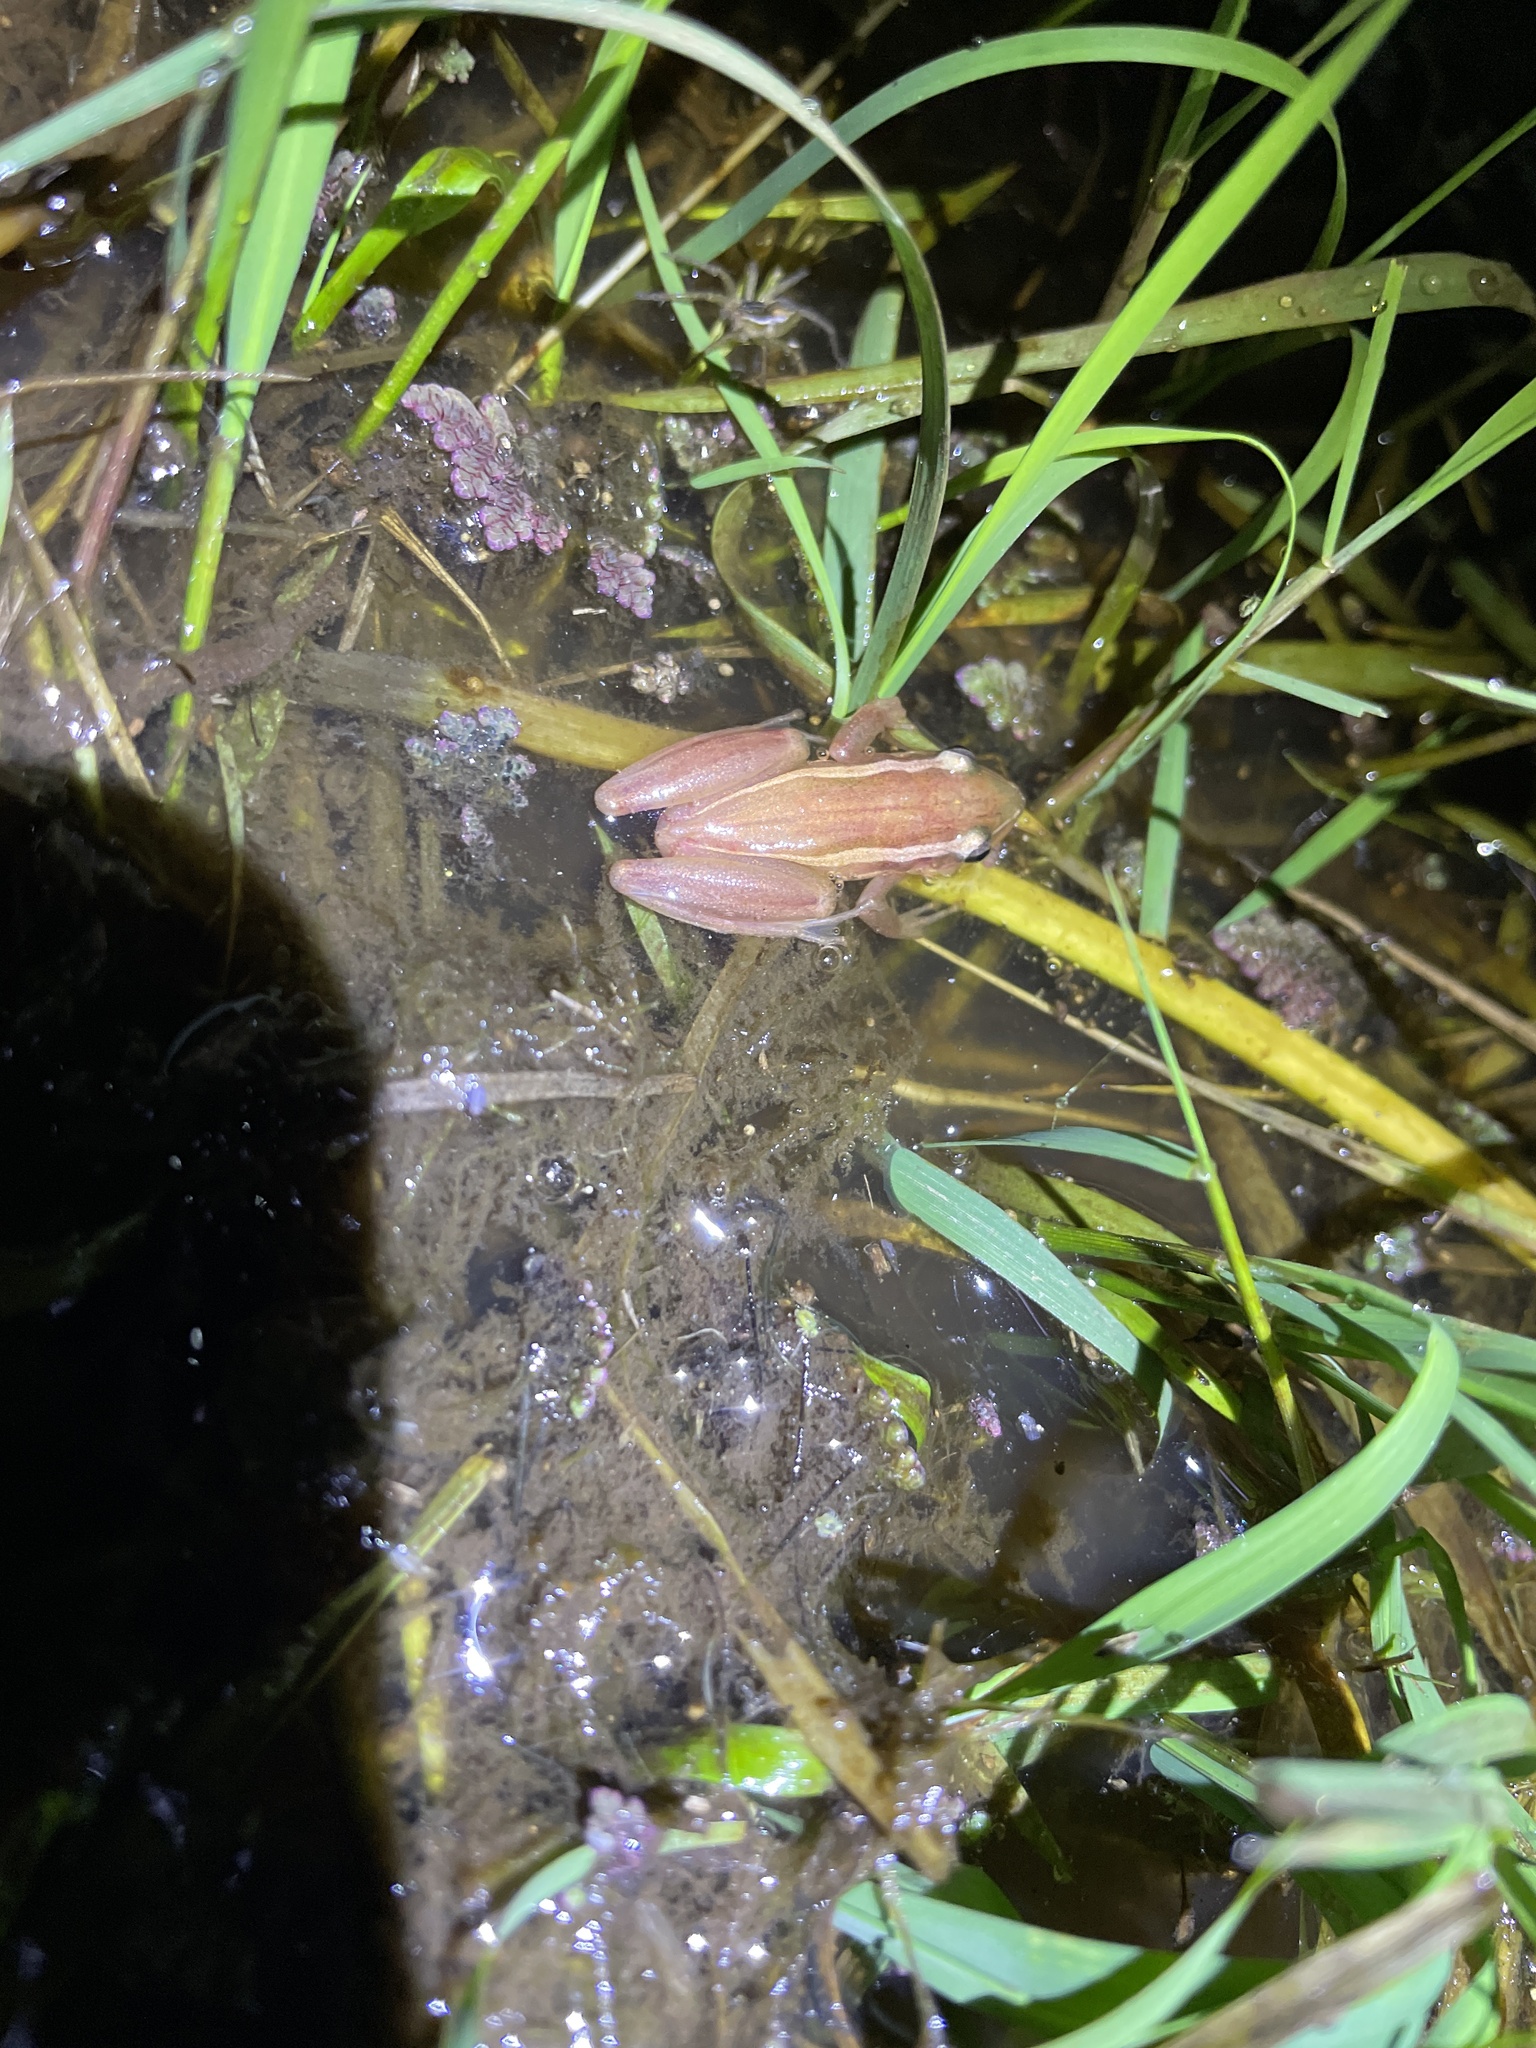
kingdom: Animalia
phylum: Chordata
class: Amphibia
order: Anura
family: Hylidae
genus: Scinax
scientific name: Scinax squalirostris
